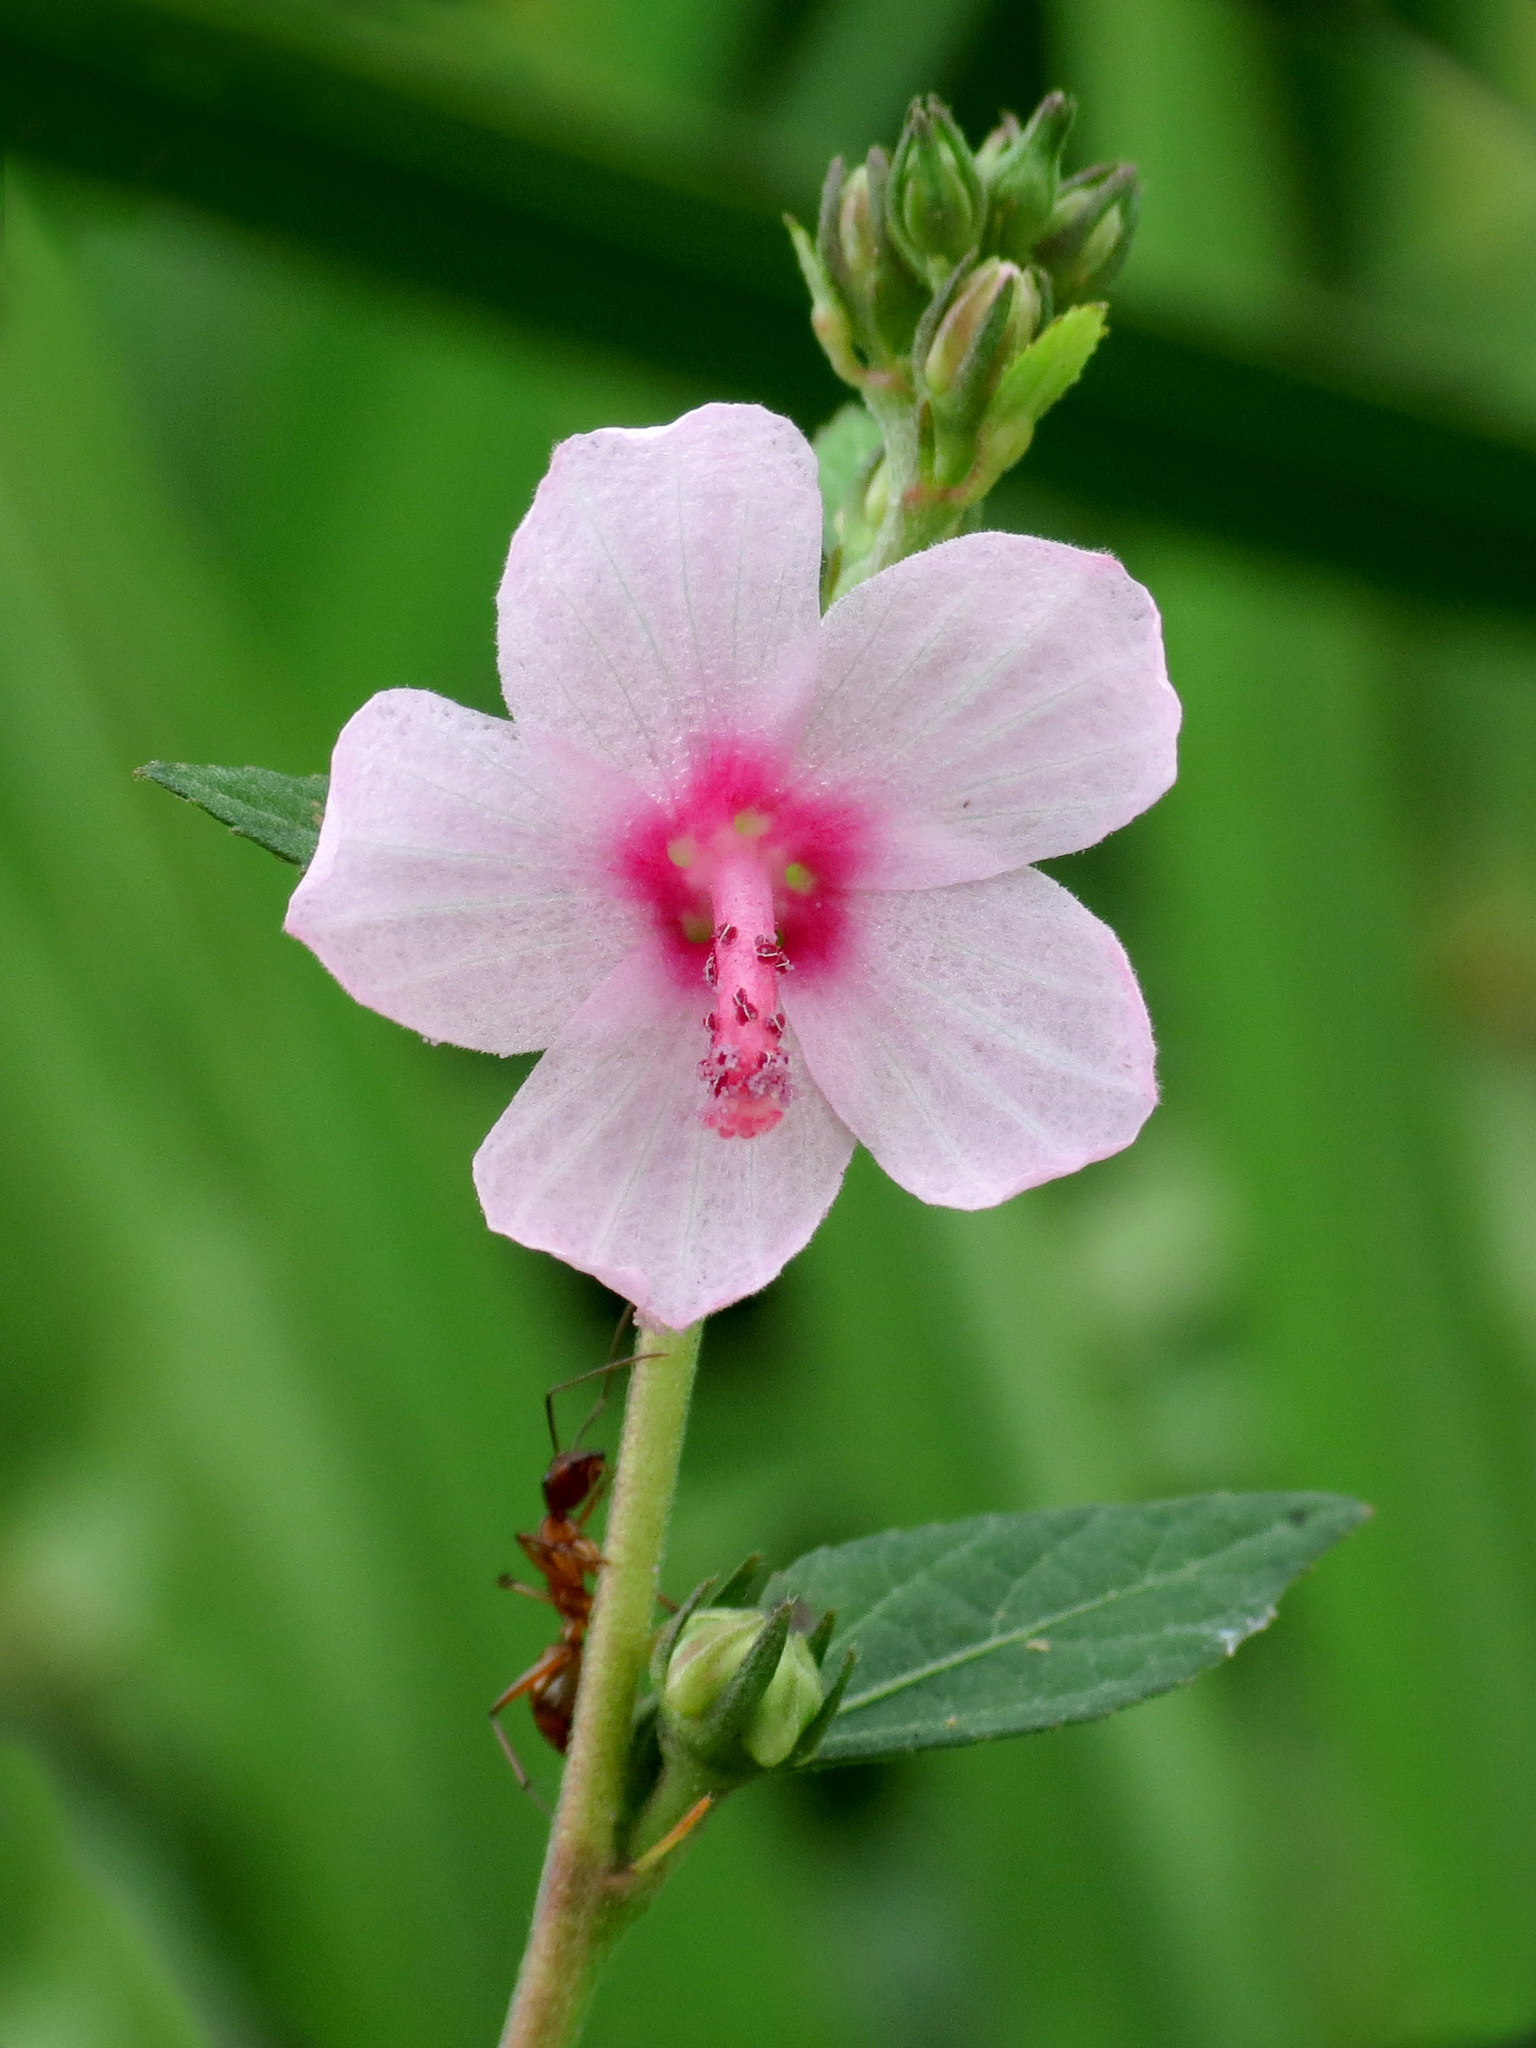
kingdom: Plantae
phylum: Tracheophyta
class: Magnoliopsida
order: Malvales
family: Malvaceae
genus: Urena
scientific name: Urena lobata
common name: Caesarweed
